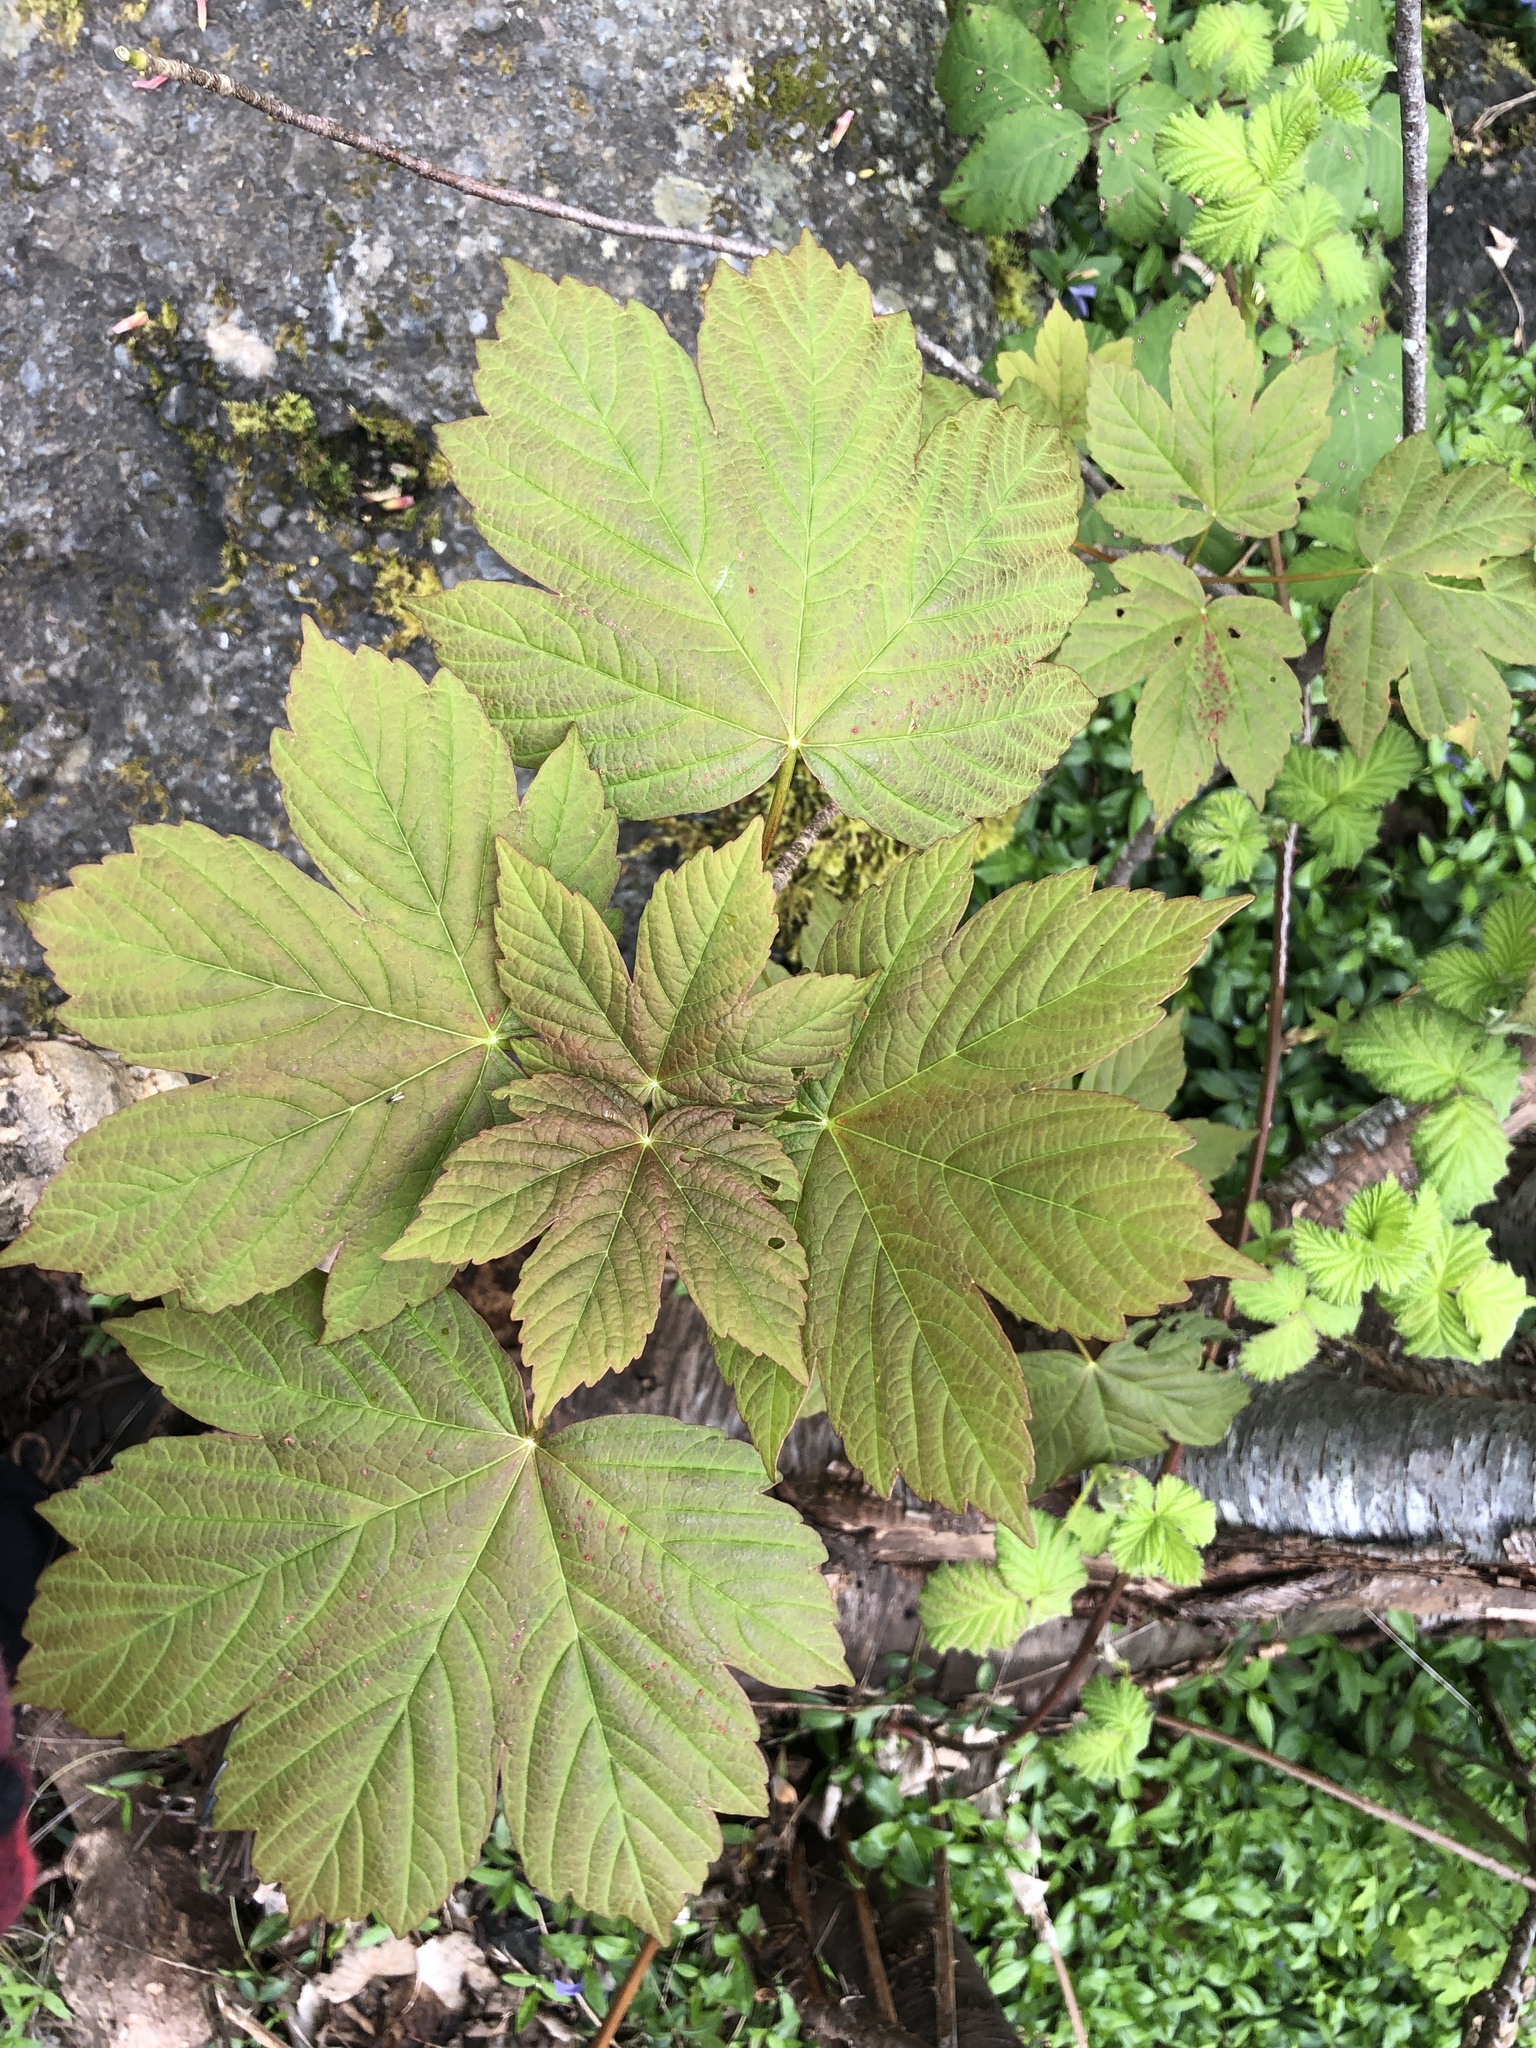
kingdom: Plantae
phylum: Tracheophyta
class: Magnoliopsida
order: Sapindales
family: Sapindaceae
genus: Acer
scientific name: Acer pseudoplatanus
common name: Sycamore
